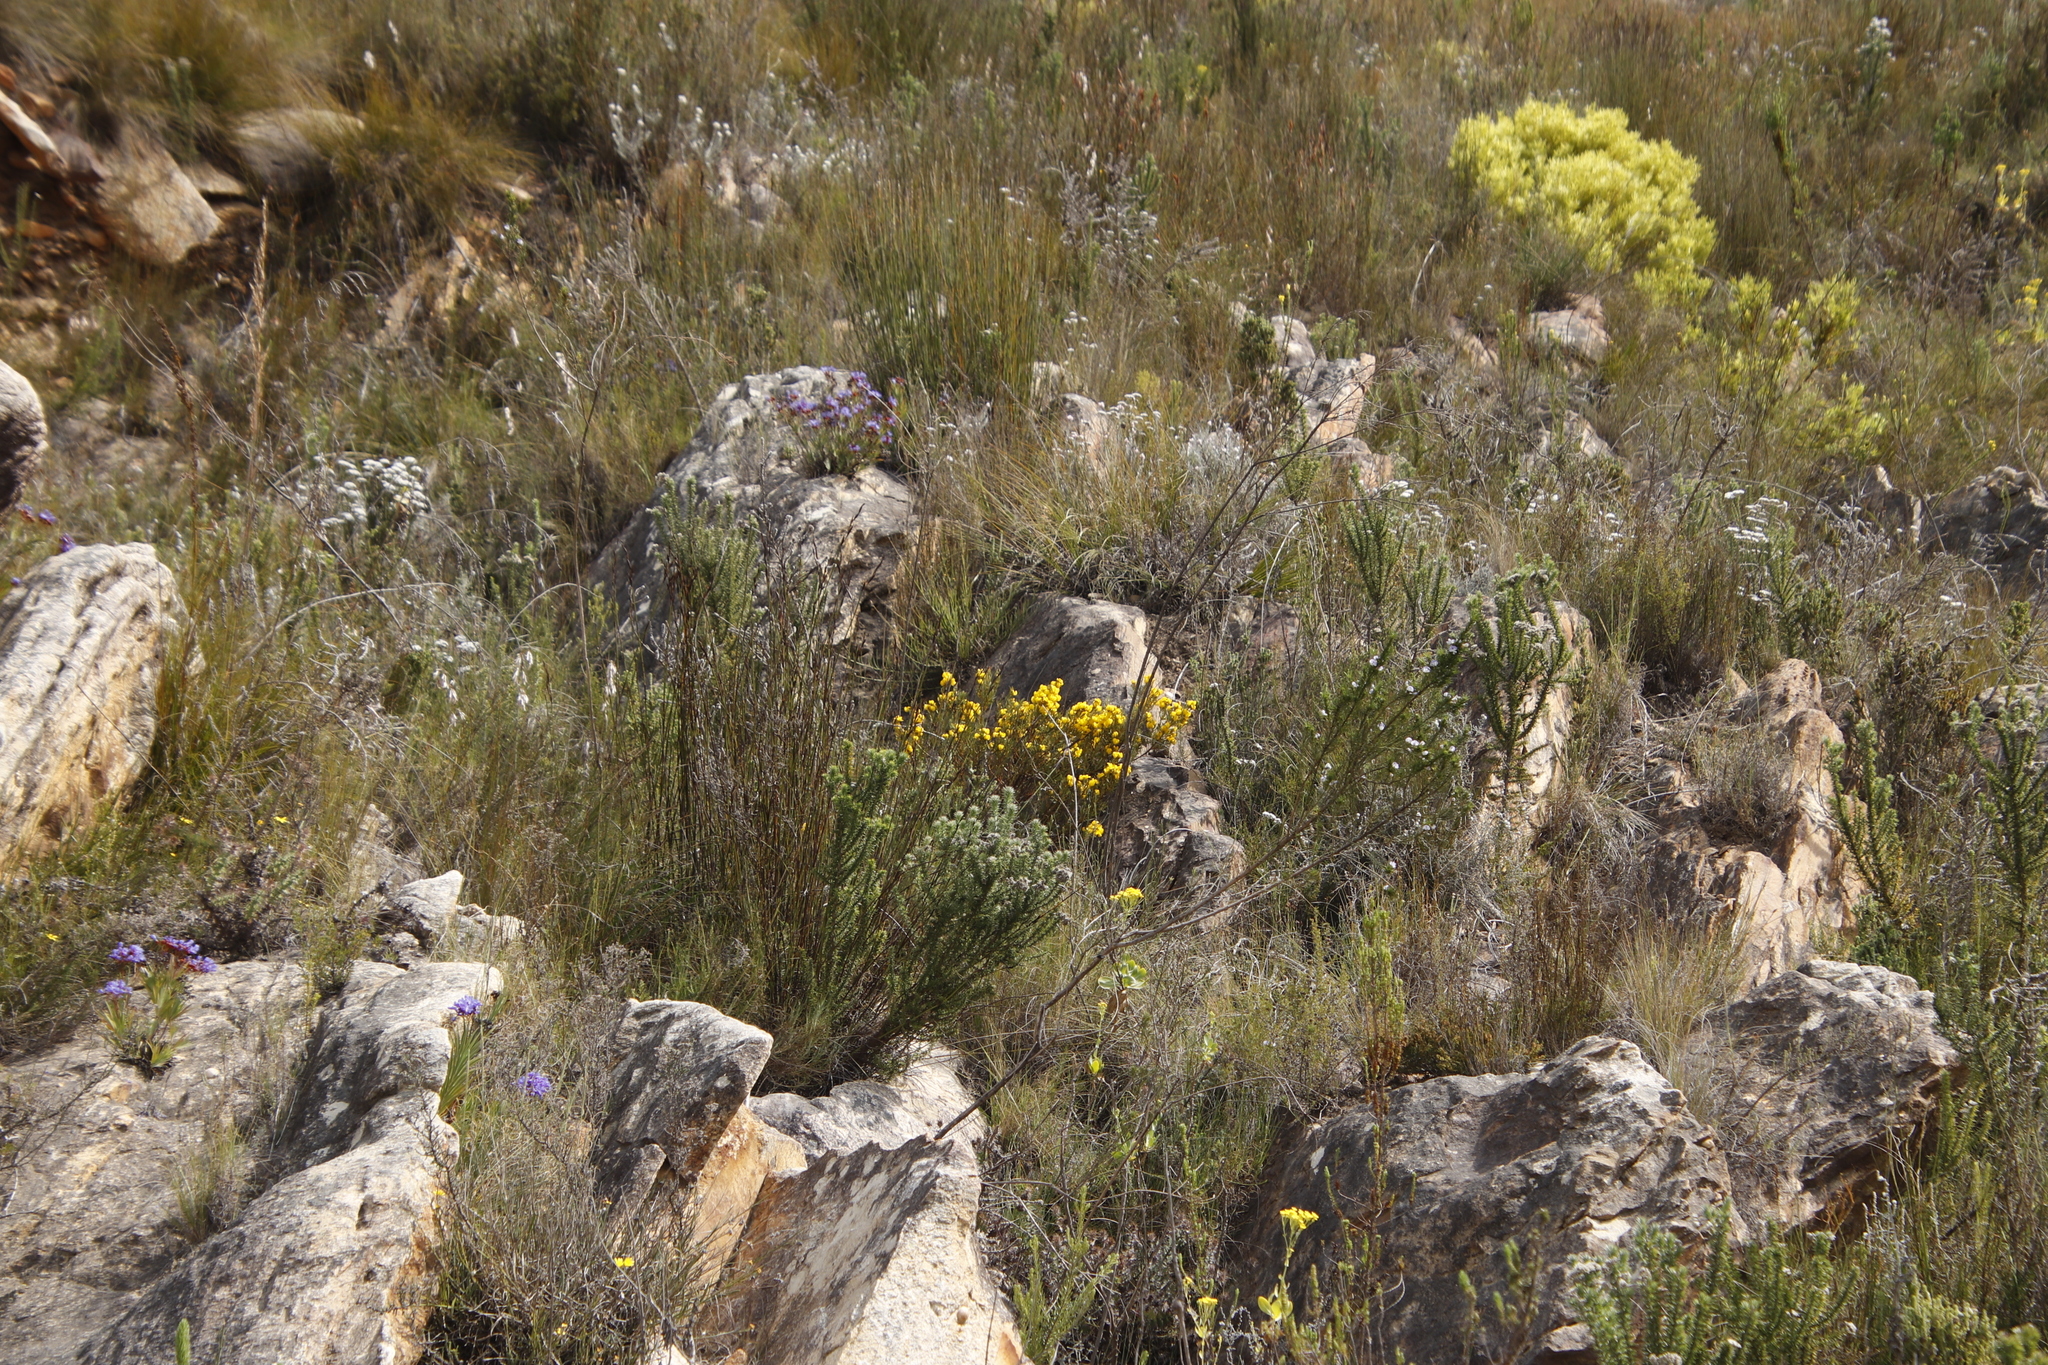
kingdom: Plantae
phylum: Tracheophyta
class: Magnoliopsida
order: Fabales
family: Fabaceae
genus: Cyclopia
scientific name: Cyclopia intermedia
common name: Mountain tea
